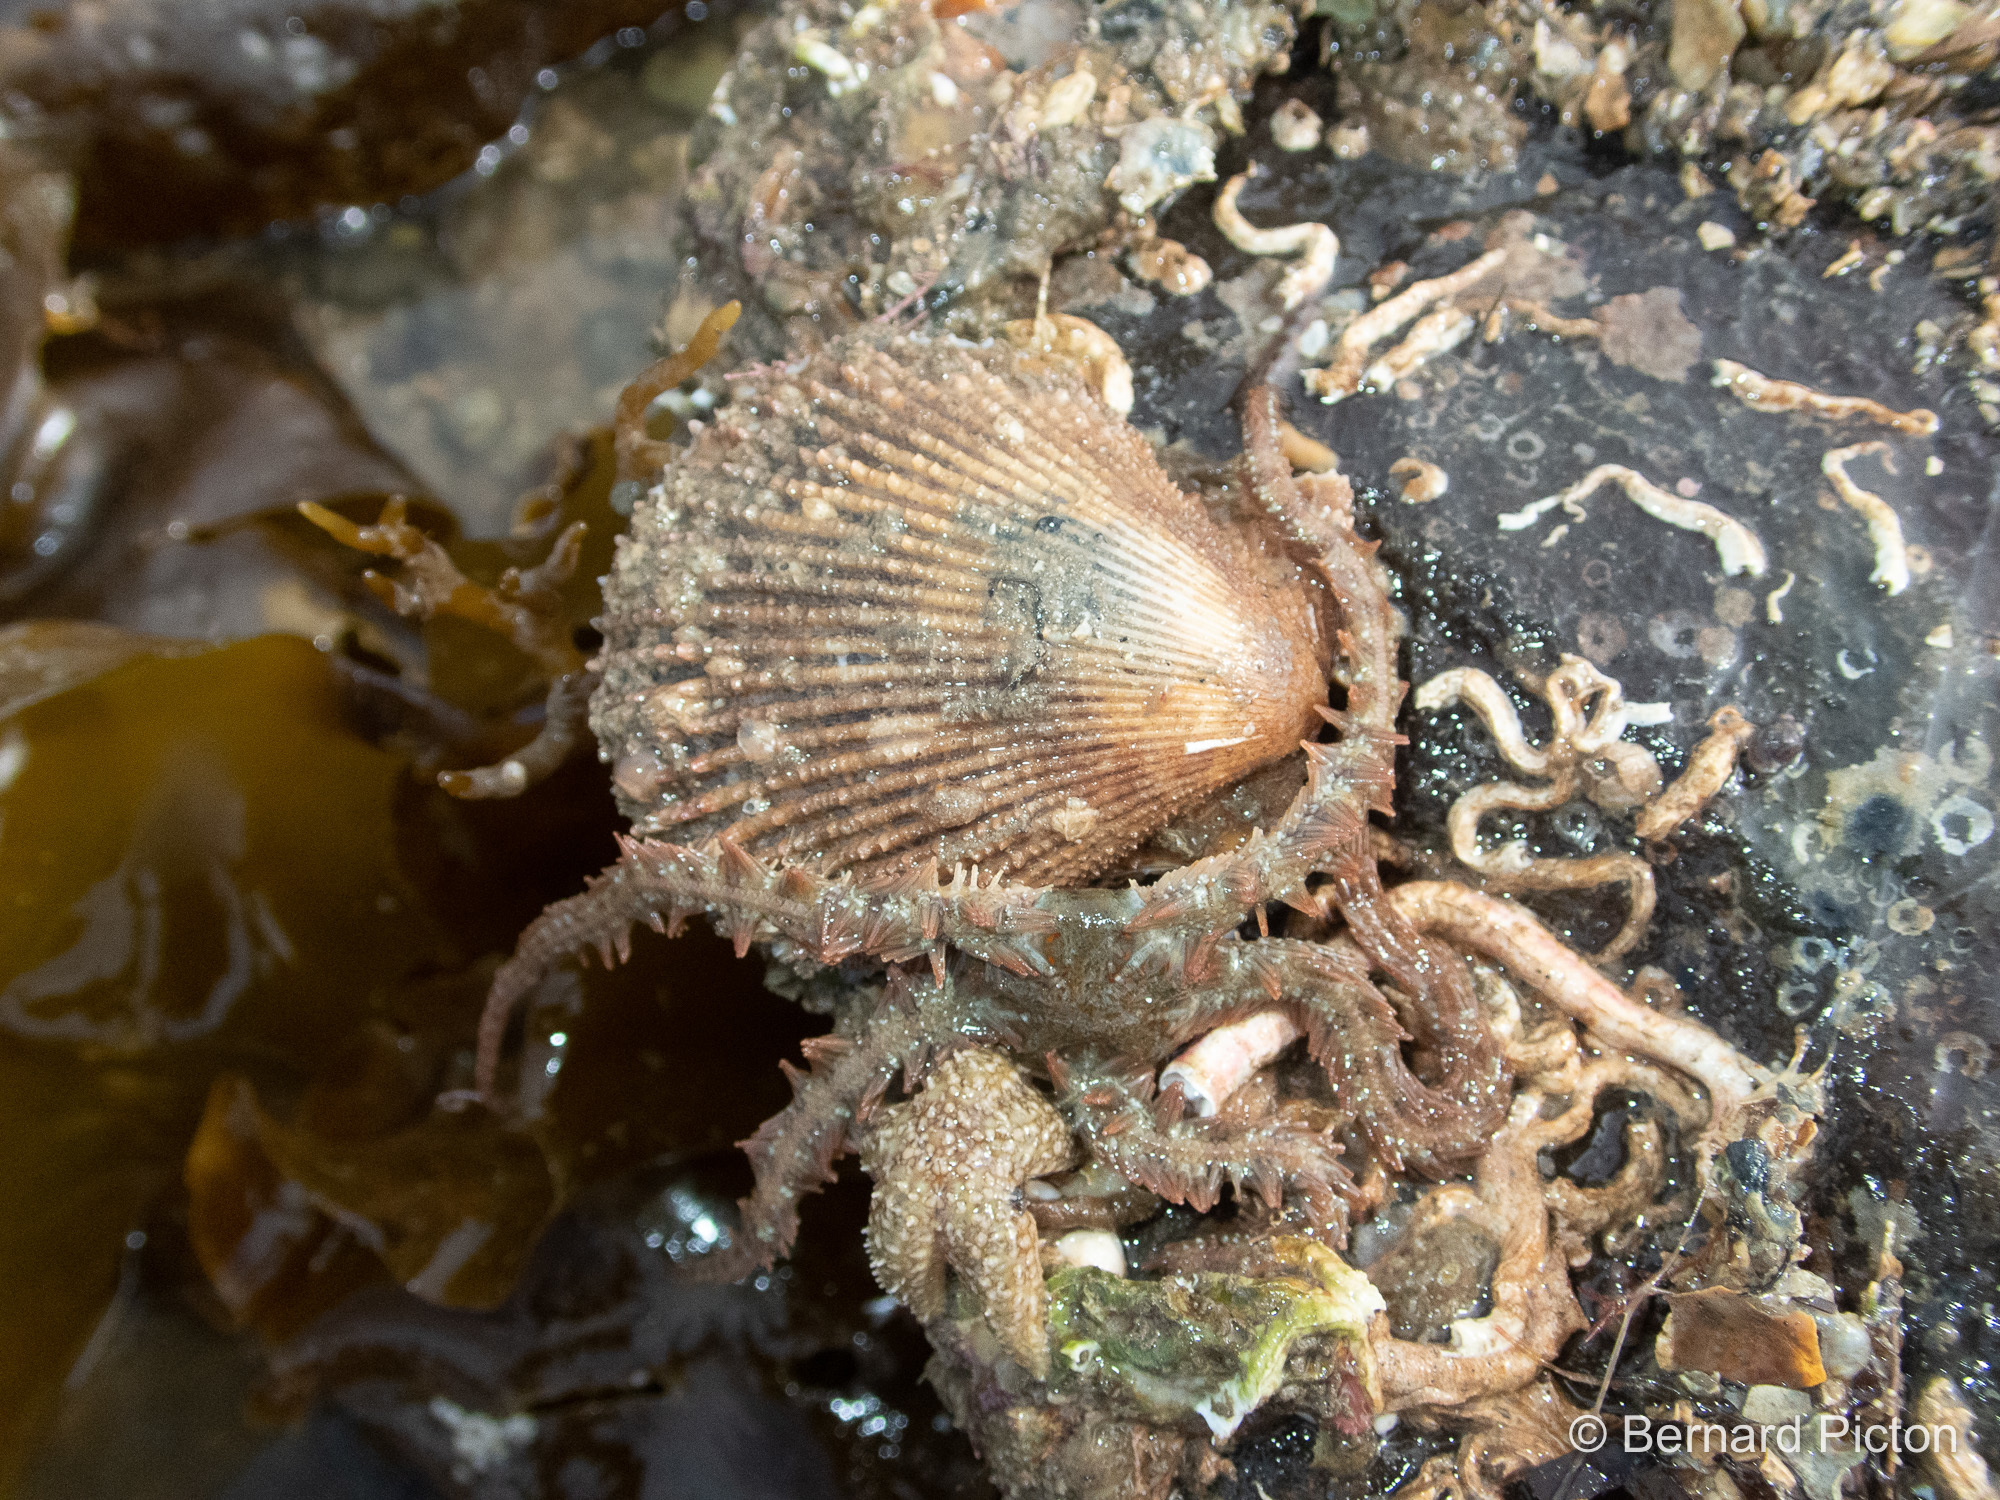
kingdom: Animalia
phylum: Mollusca
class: Bivalvia
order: Pectinida
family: Pectinidae
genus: Mimachlamys
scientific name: Mimachlamys varia
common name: Variegated scallop
